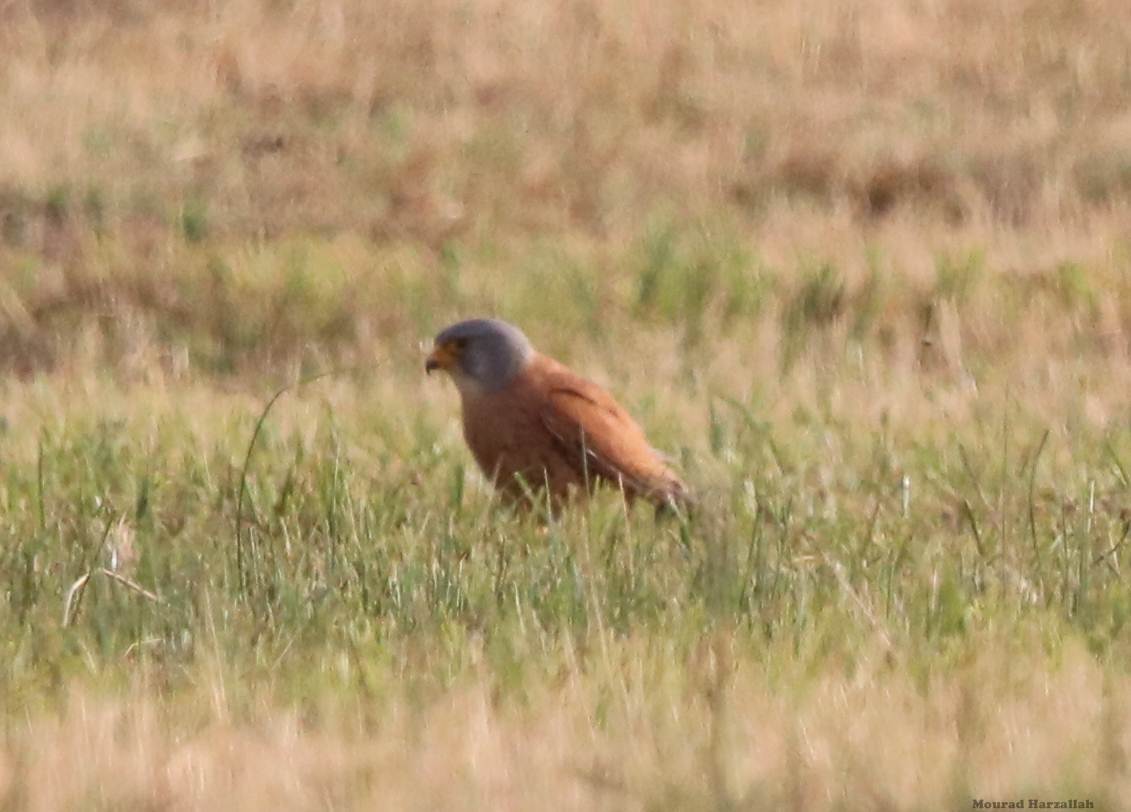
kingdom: Animalia
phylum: Chordata
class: Aves
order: Falconiformes
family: Falconidae
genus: Falco
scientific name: Falco naumanni
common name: Lesser kestrel
